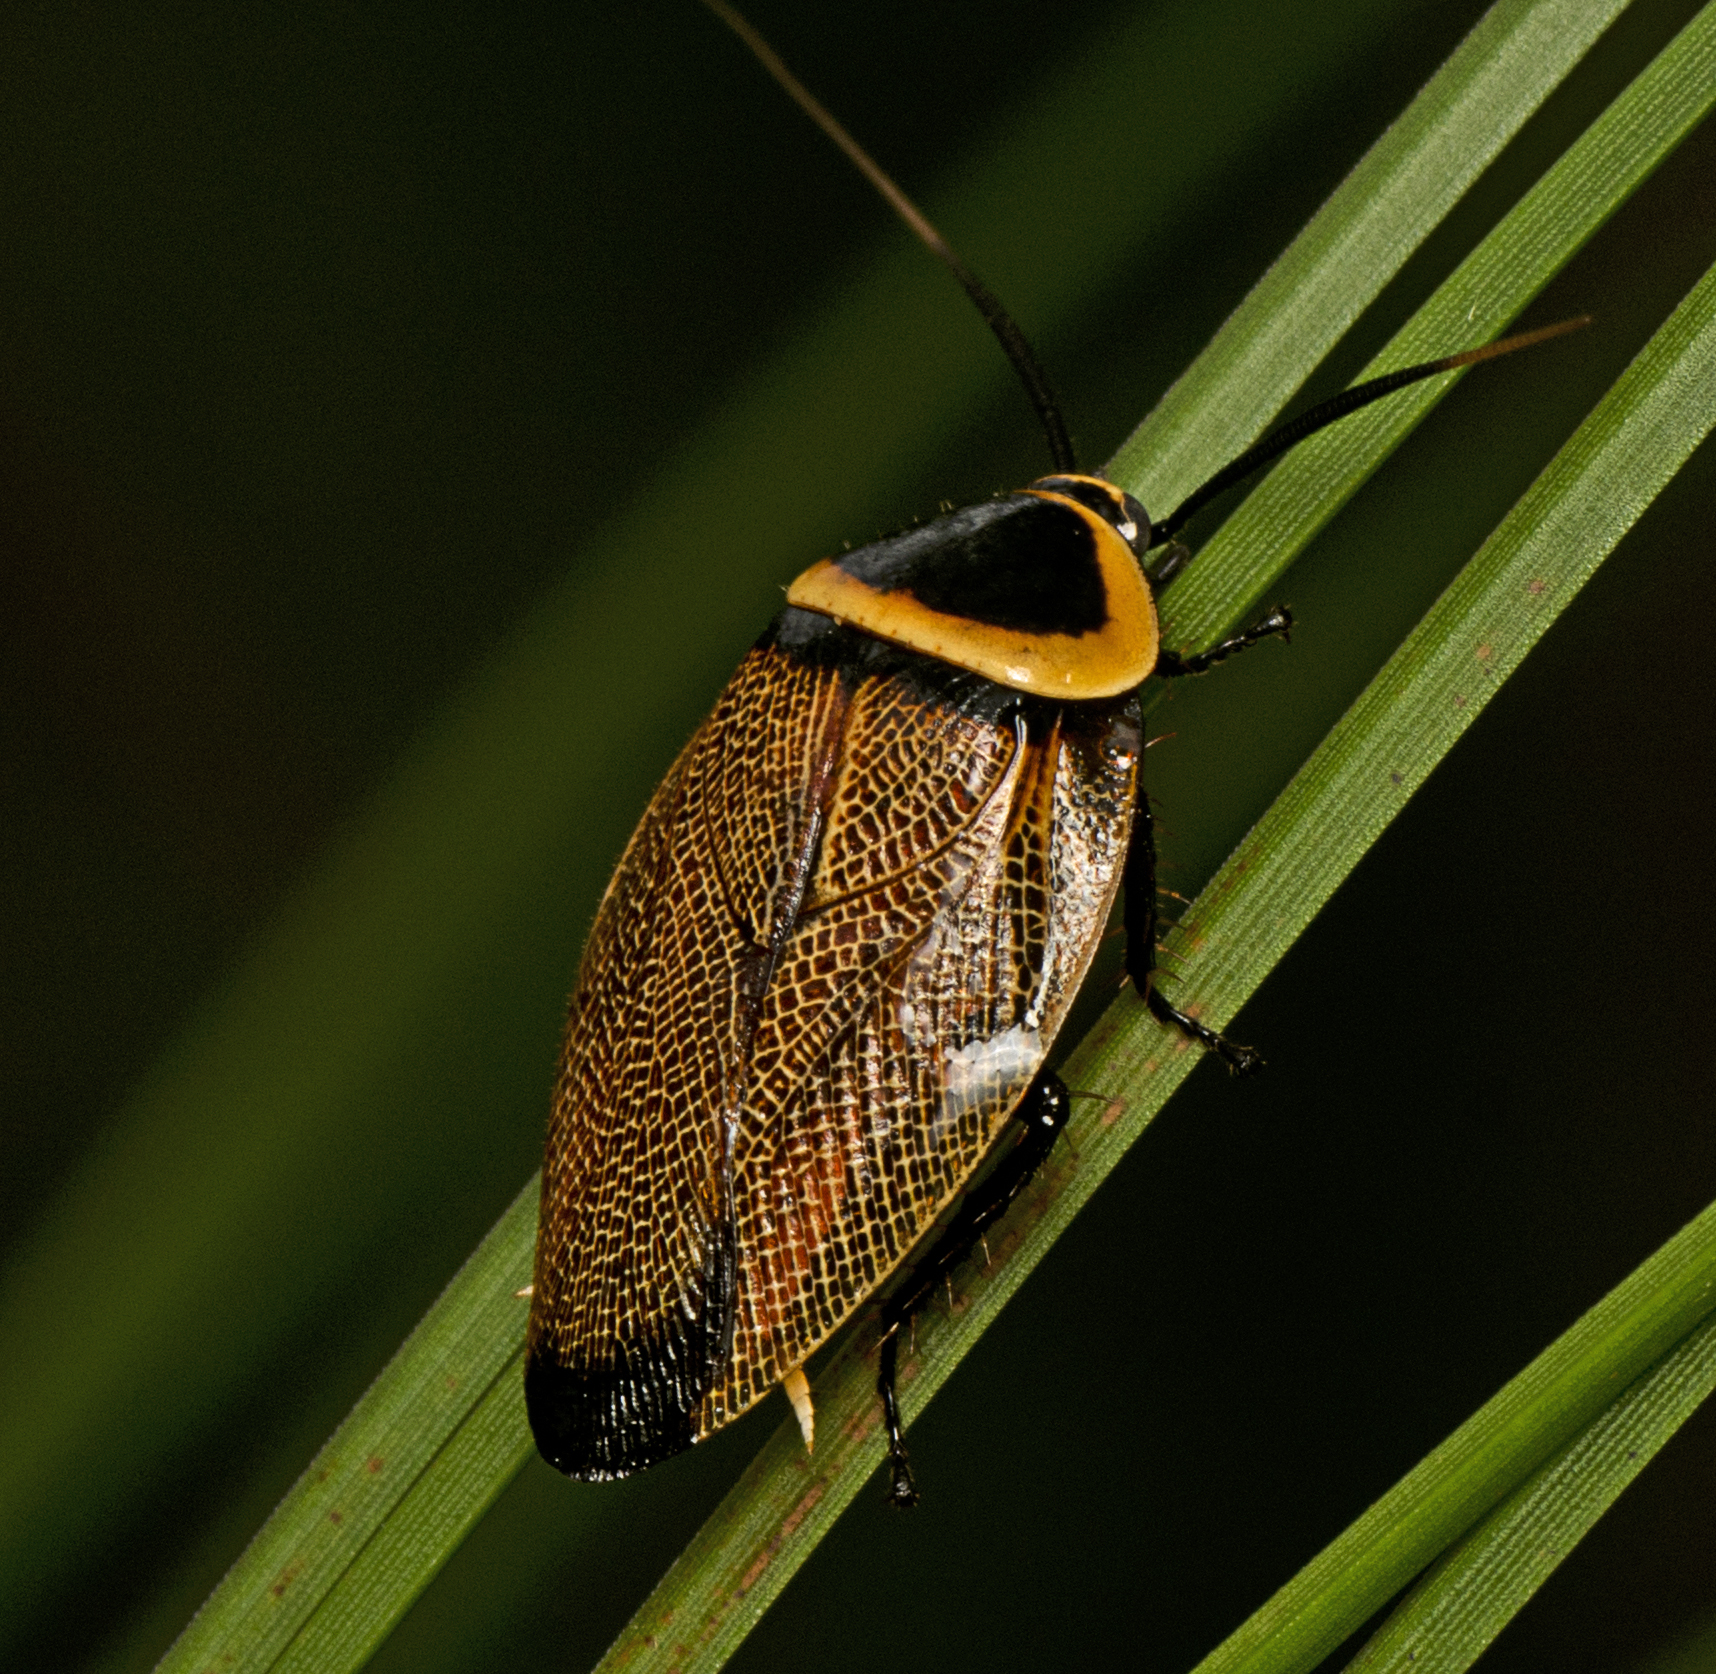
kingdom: Animalia
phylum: Arthropoda
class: Insecta
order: Blattodea
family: Ectobiidae
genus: Ellipsidion
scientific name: Ellipsidion australe
